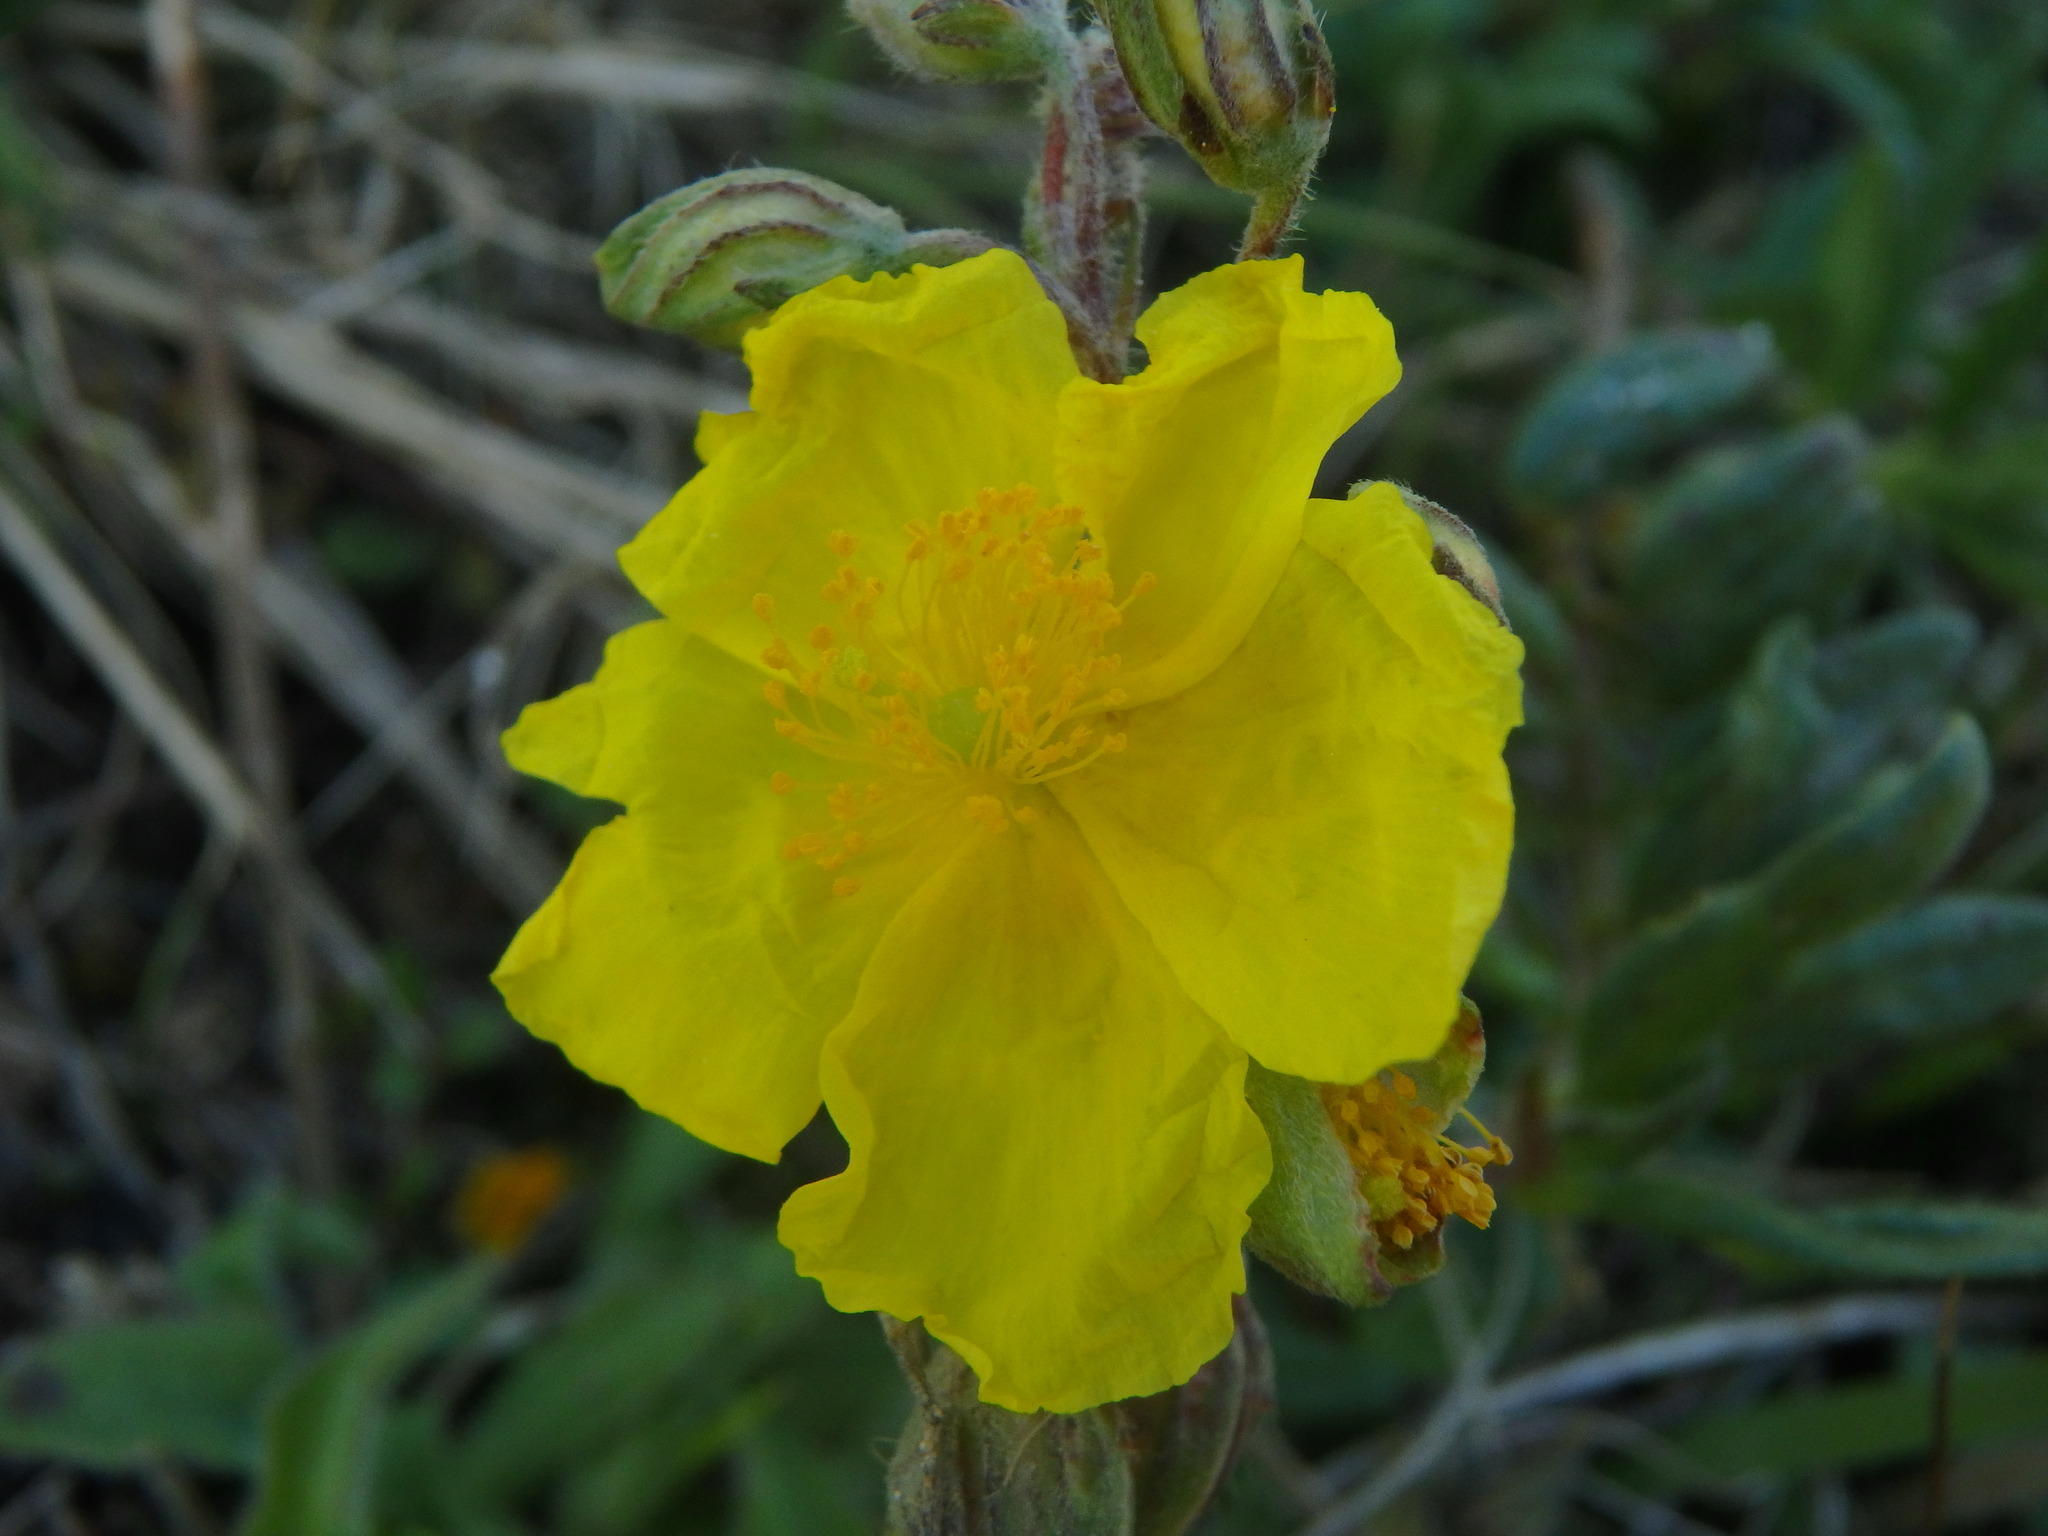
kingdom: Plantae
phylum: Tracheophyta
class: Magnoliopsida
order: Malvales
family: Cistaceae
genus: Helianthemum
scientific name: Helianthemum nummularium
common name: Common rock-rose
